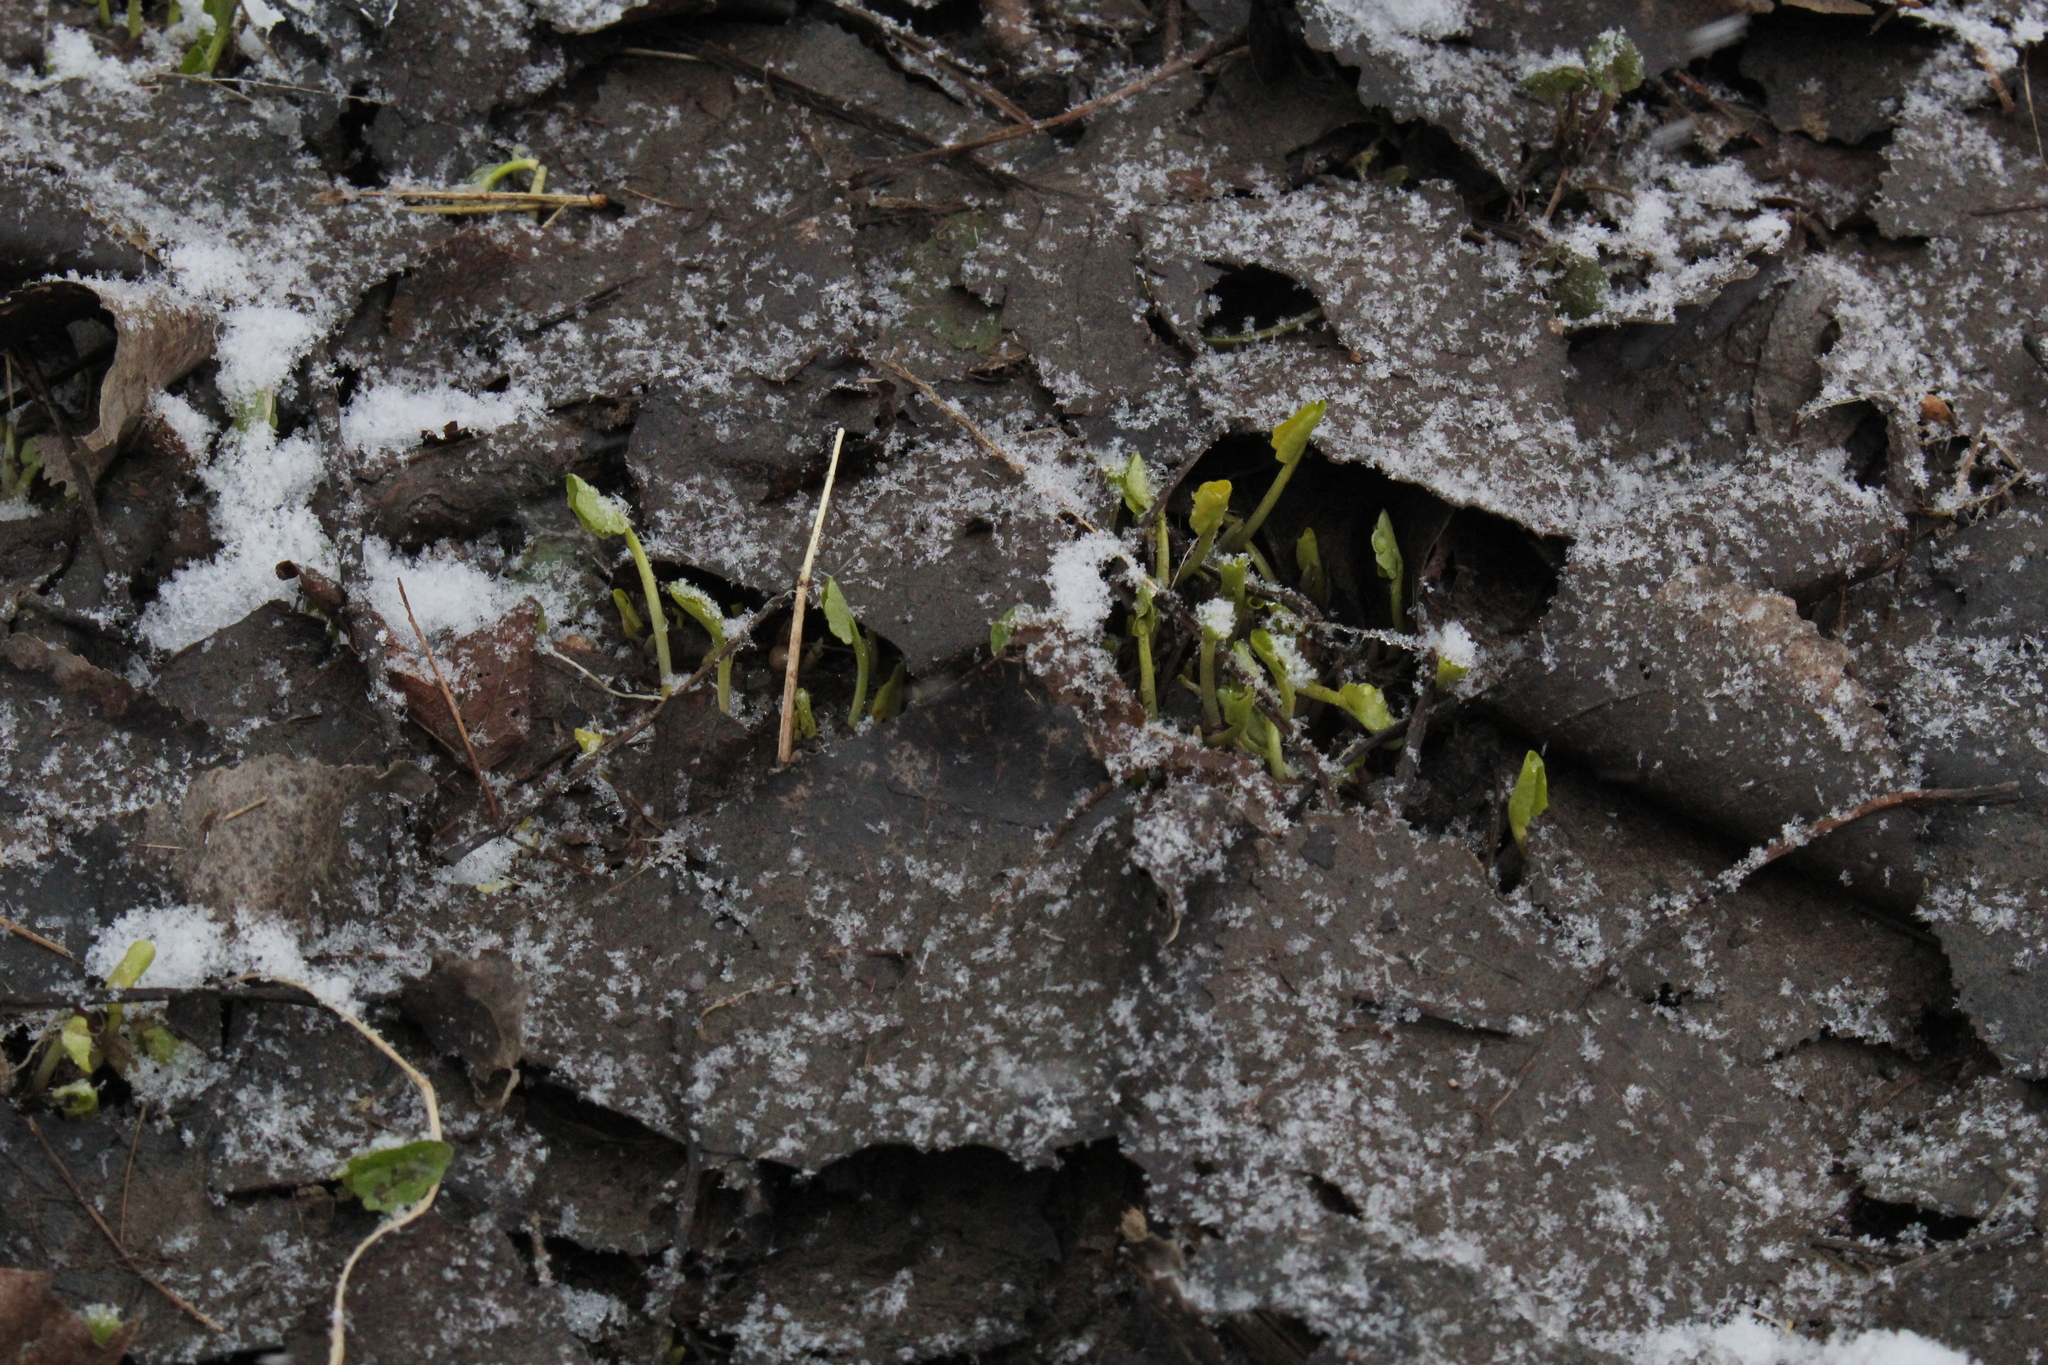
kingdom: Plantae
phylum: Tracheophyta
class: Magnoliopsida
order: Ranunculales
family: Ranunculaceae
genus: Ficaria
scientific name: Ficaria verna
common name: Lesser celandine
